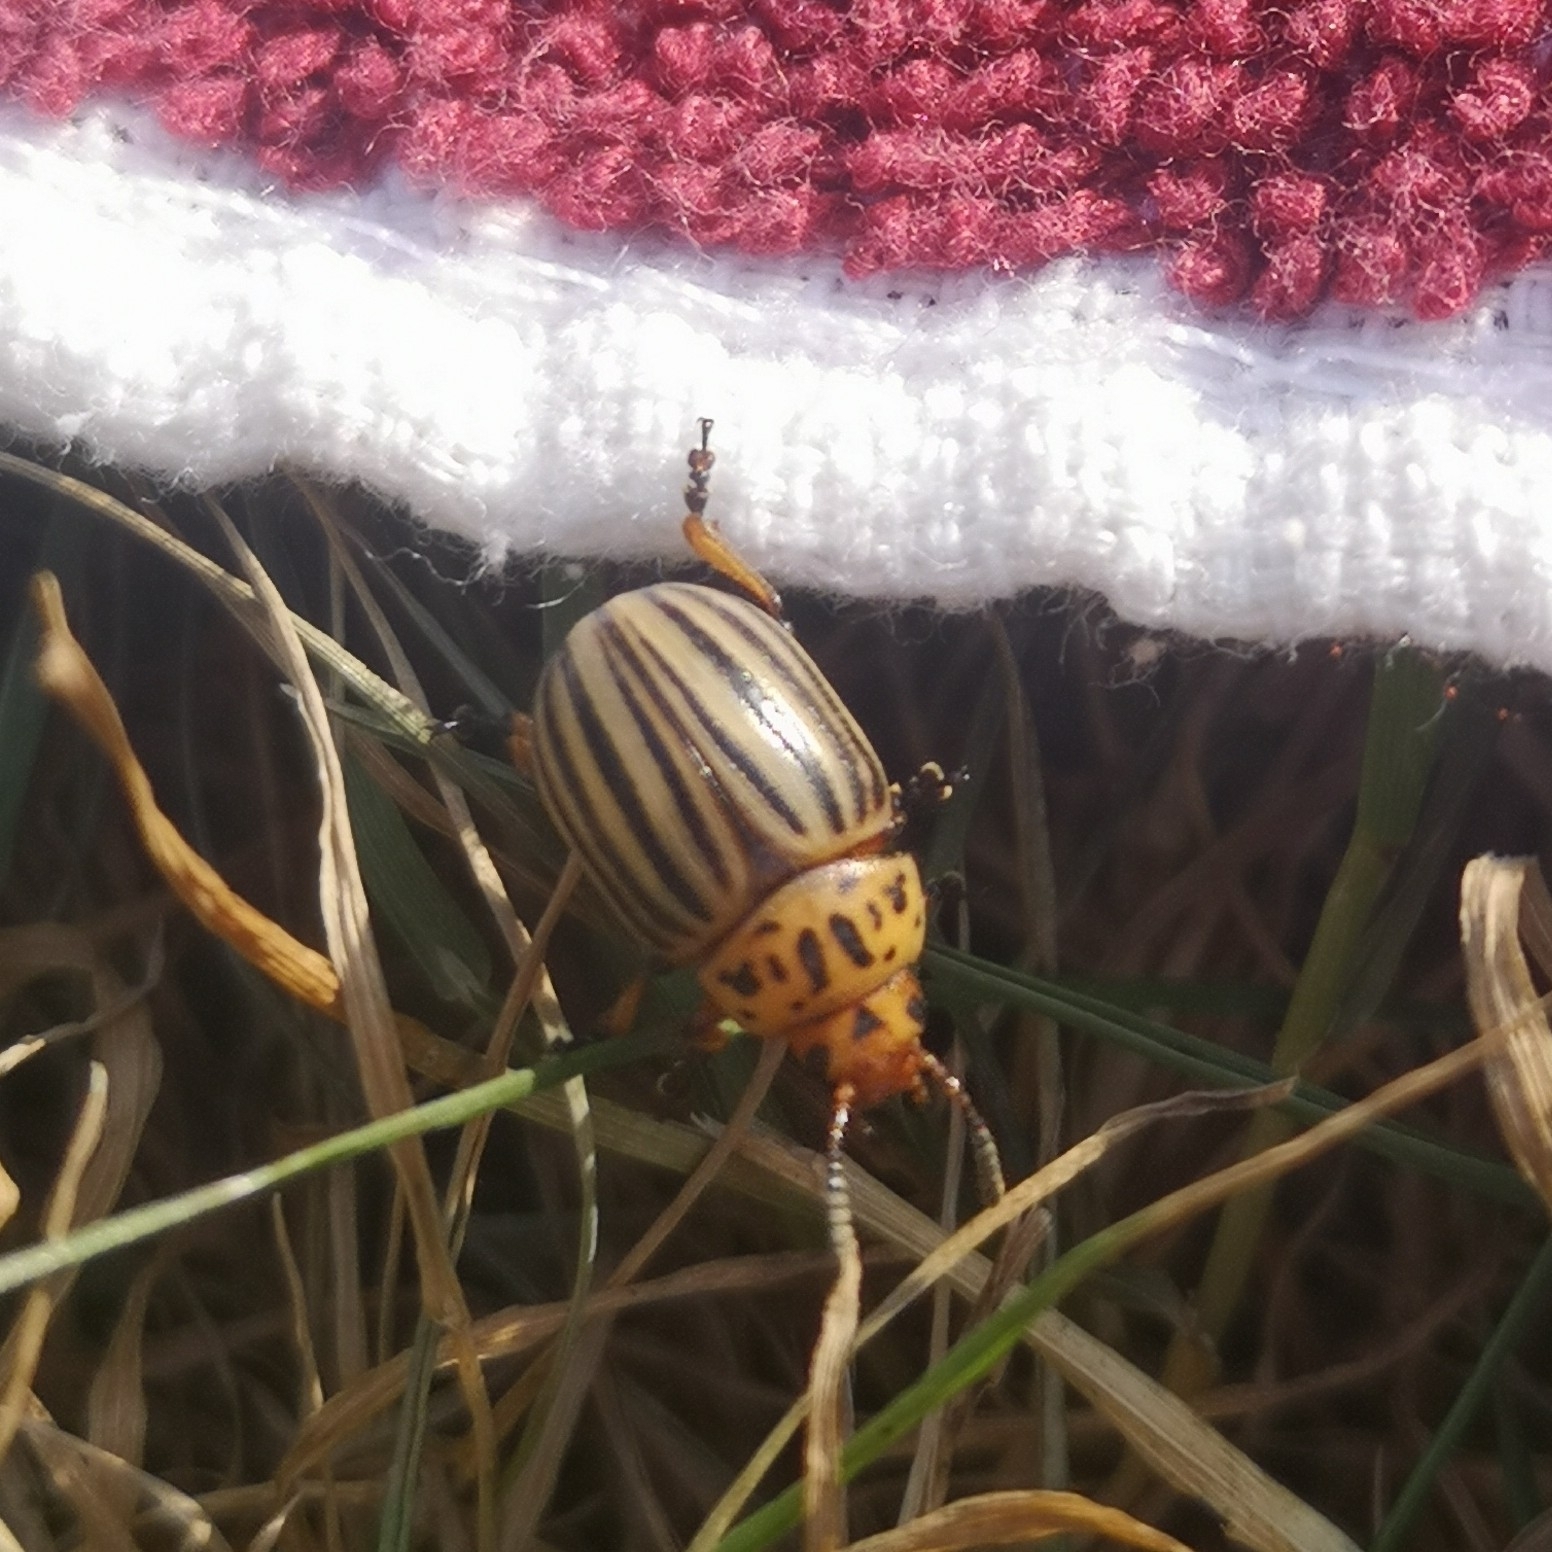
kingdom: Animalia
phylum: Arthropoda
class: Insecta
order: Coleoptera
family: Chrysomelidae
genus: Leptinotarsa
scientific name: Leptinotarsa decemlineata
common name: Colorado potato beetle
